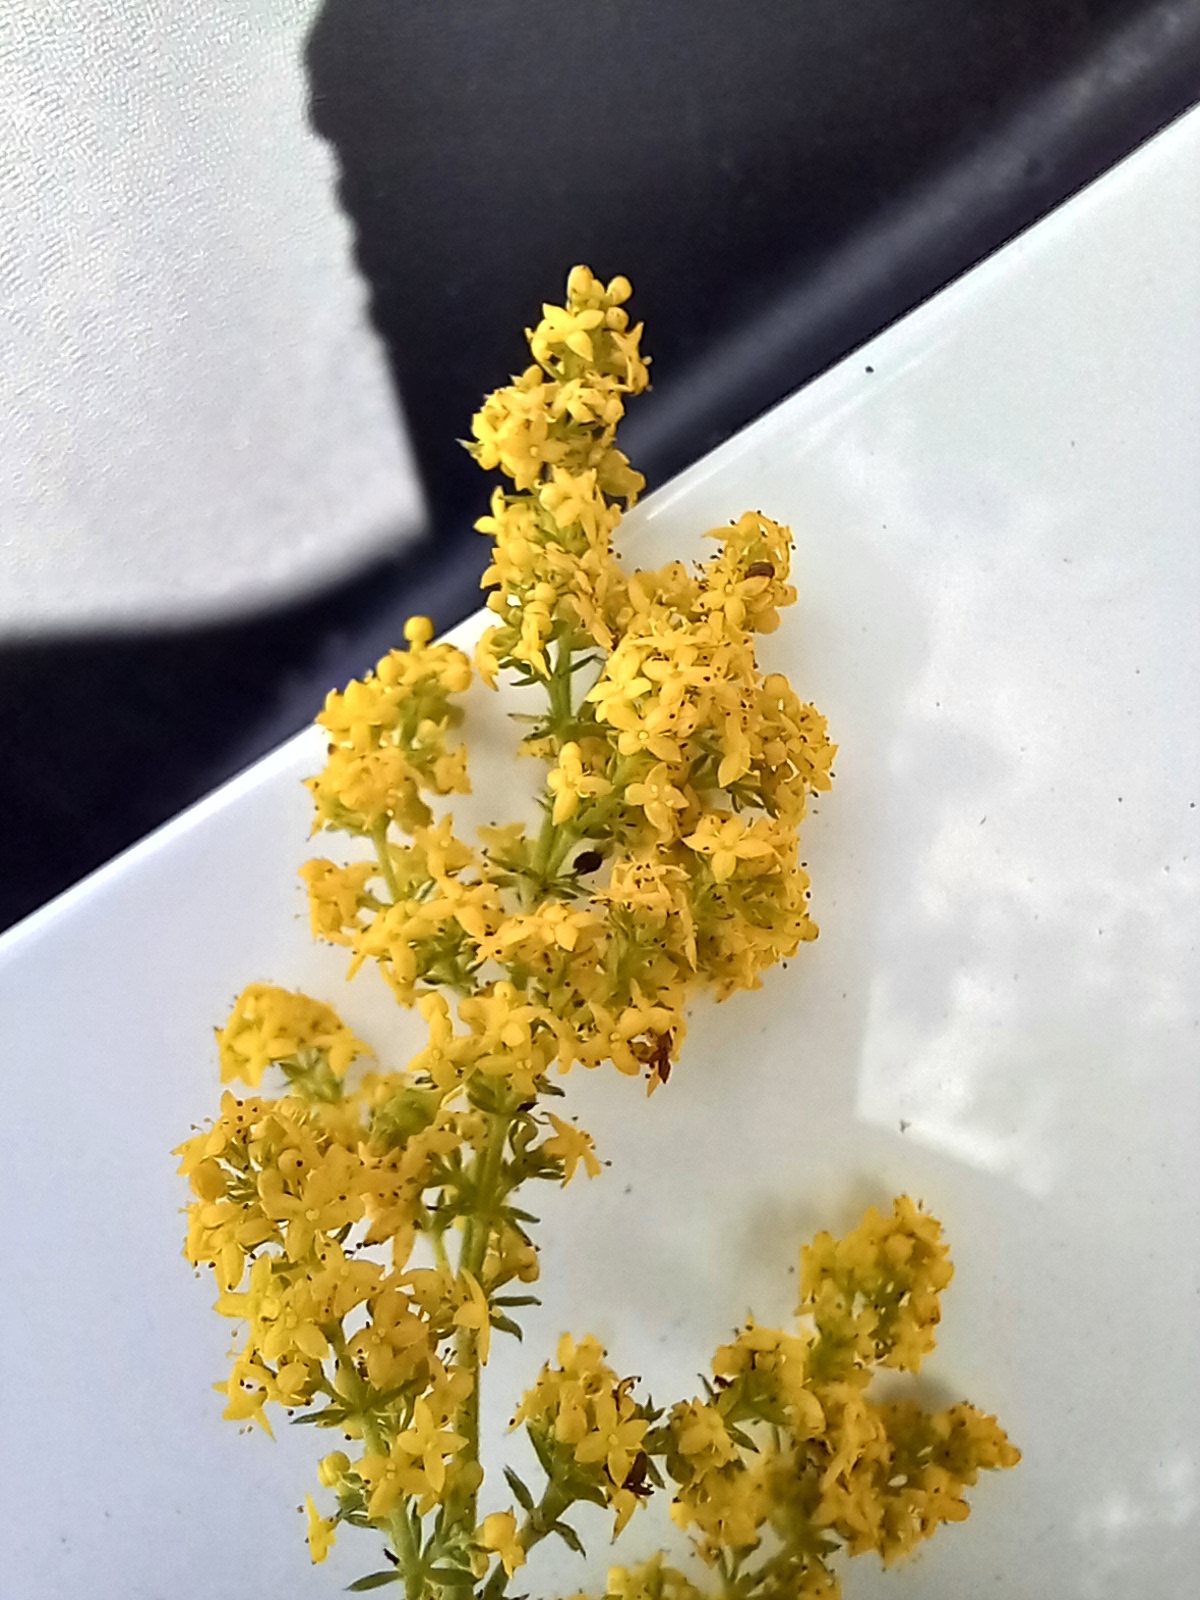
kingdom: Plantae
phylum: Tracheophyta
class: Magnoliopsida
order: Gentianales
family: Rubiaceae
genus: Galium
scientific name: Galium verum
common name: Lady's bedstraw
